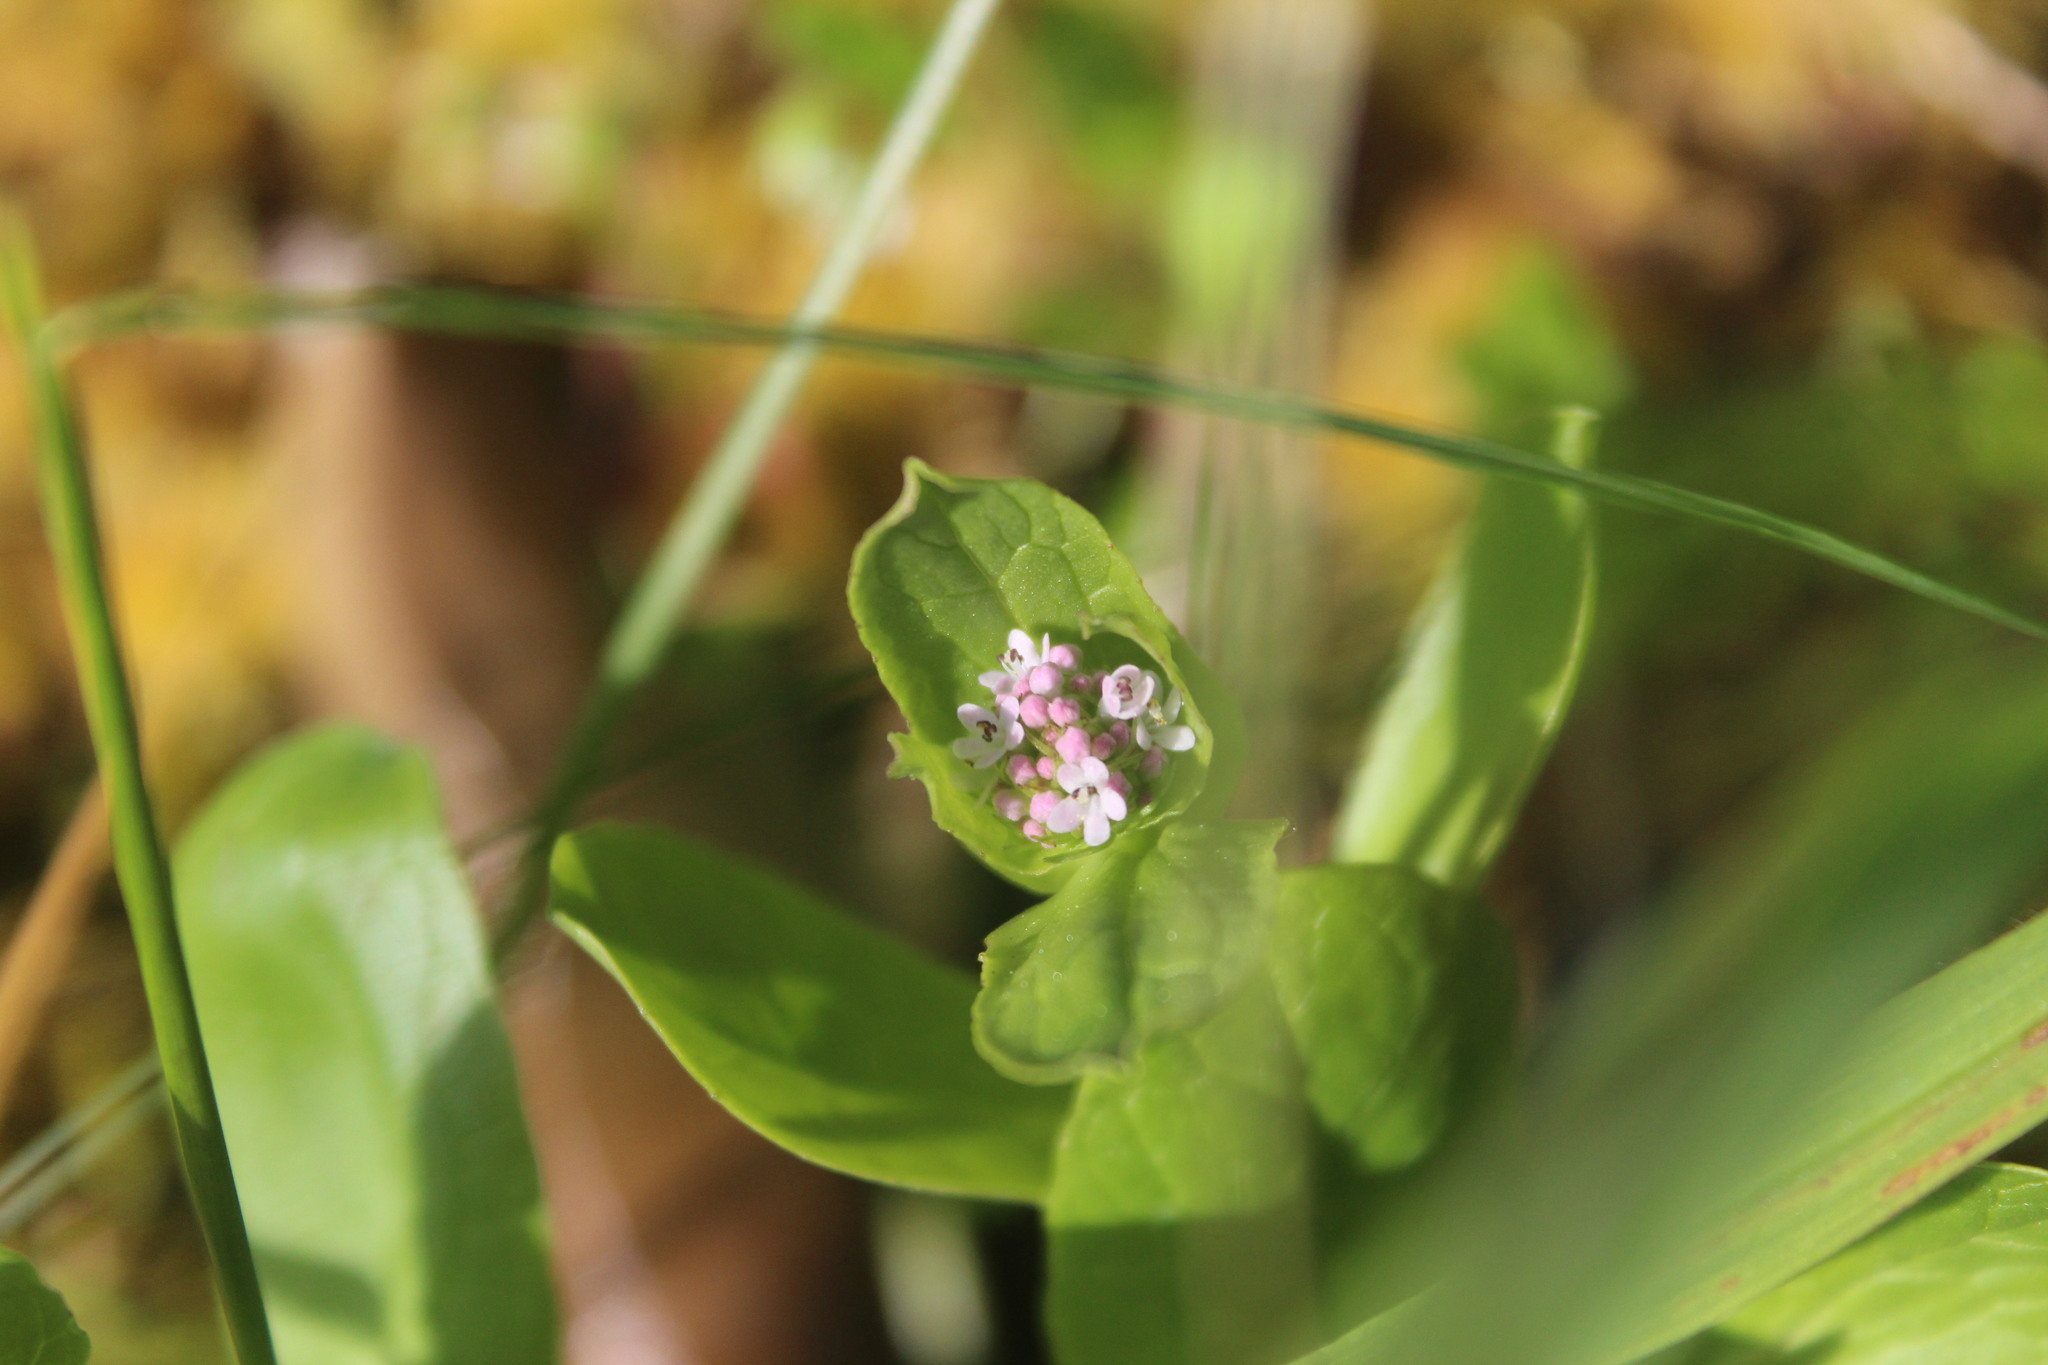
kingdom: Plantae
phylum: Tracheophyta
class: Magnoliopsida
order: Dipsacales
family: Caprifoliaceae
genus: Plectritis
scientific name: Plectritis congesta
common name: Pink plectritis
